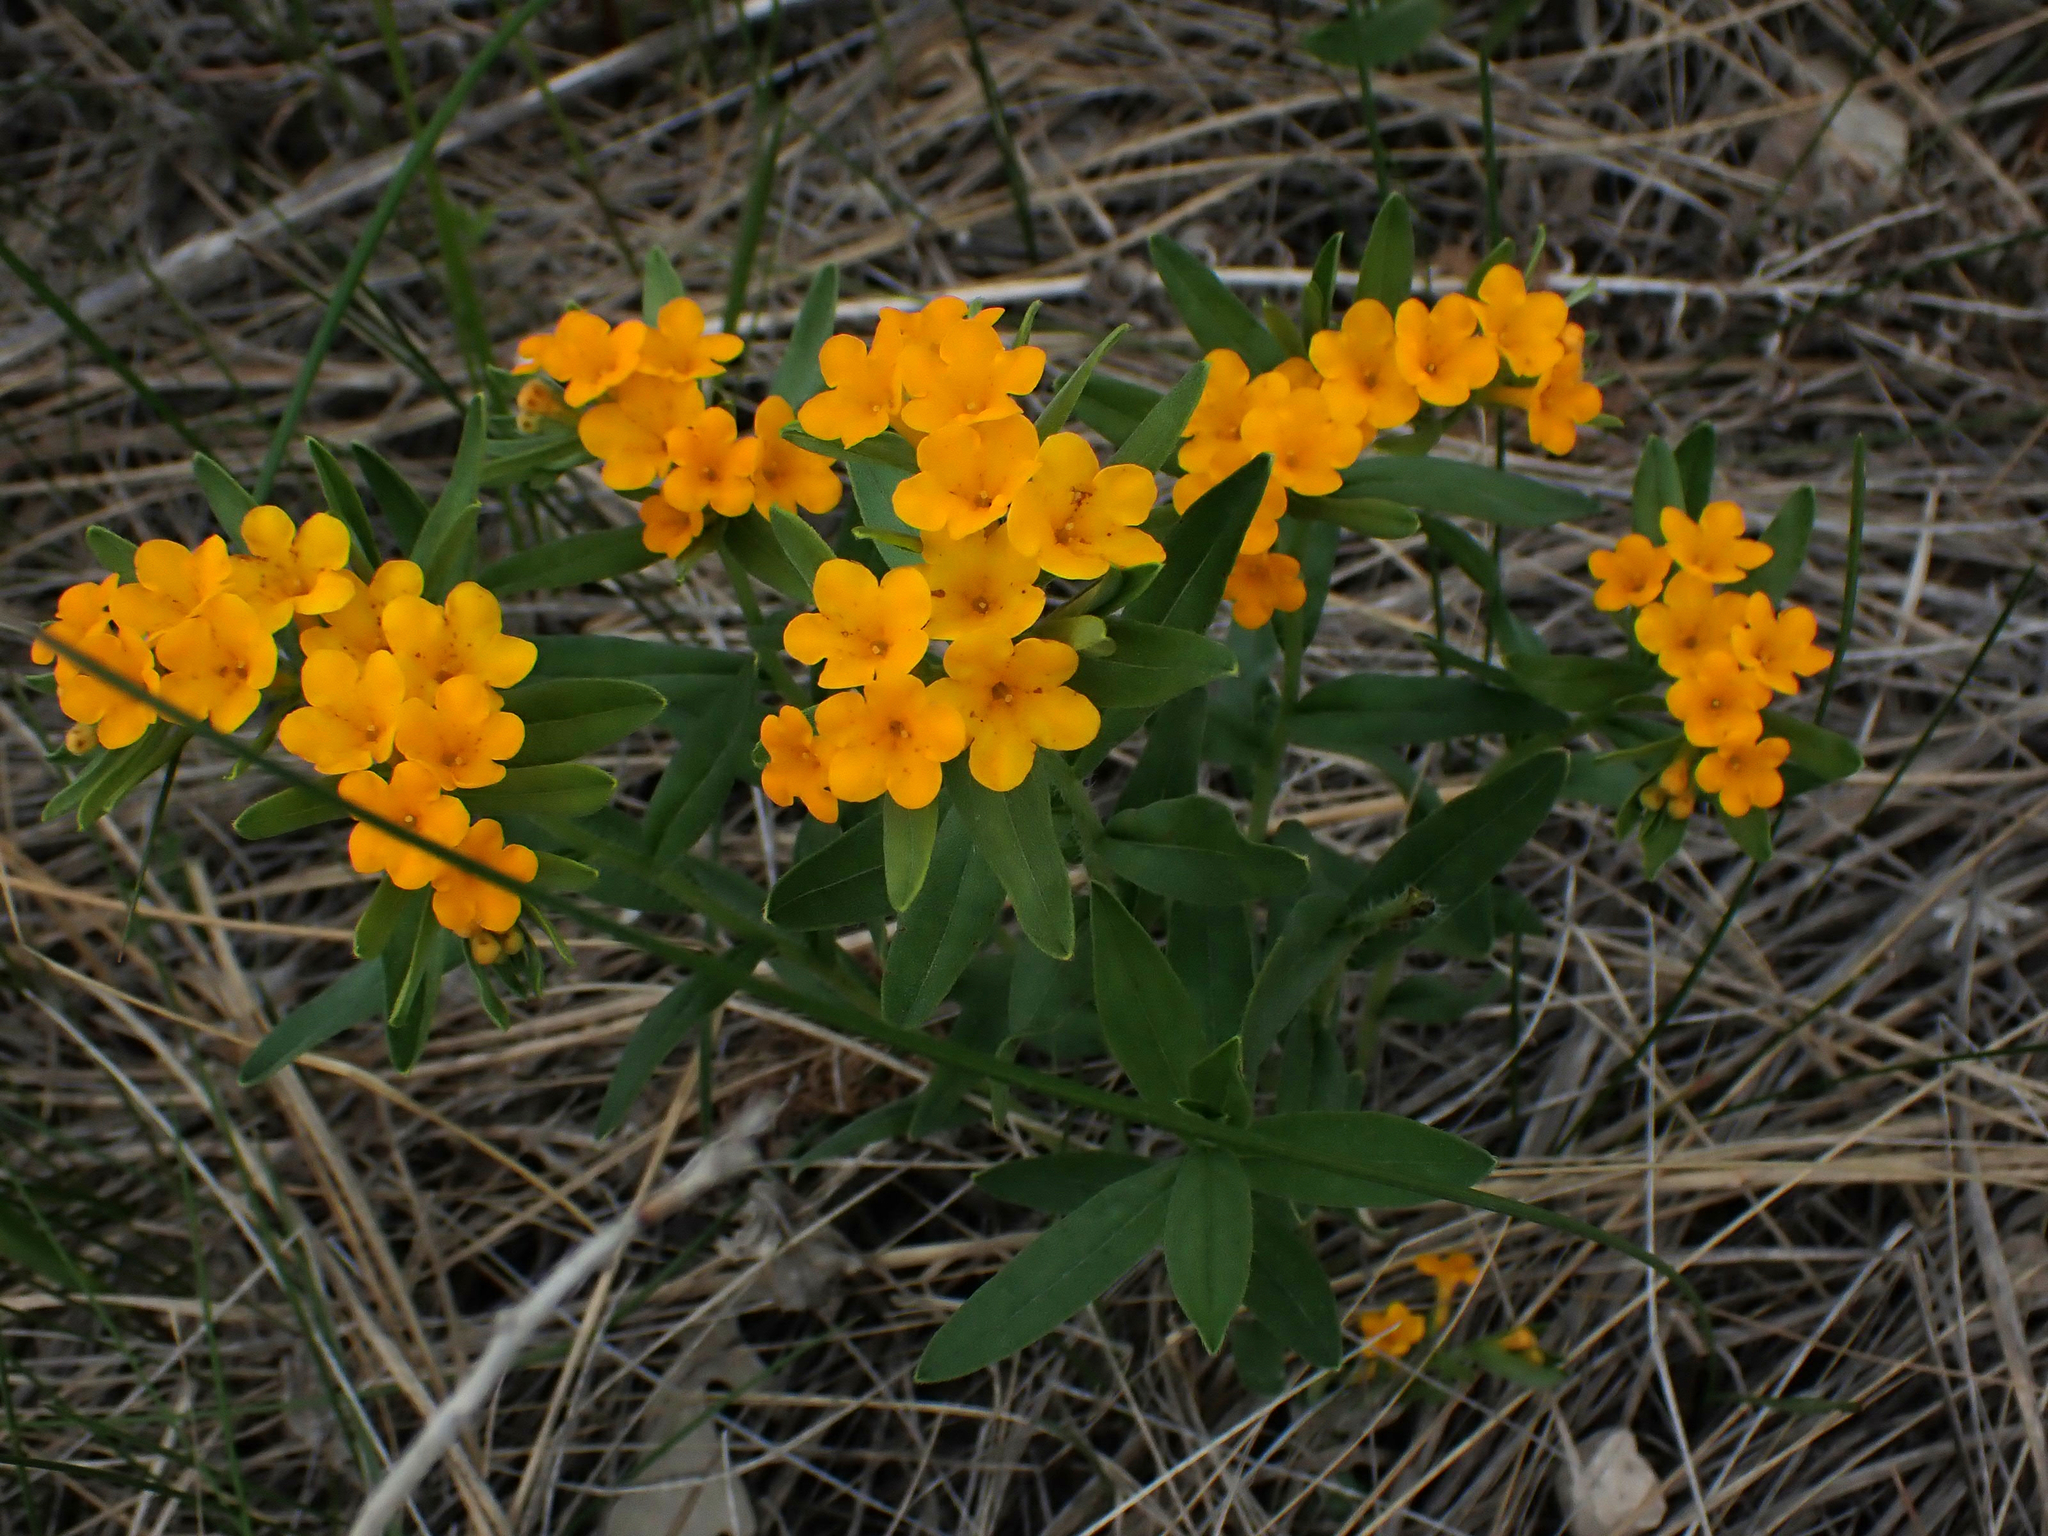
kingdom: Plantae
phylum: Tracheophyta
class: Magnoliopsida
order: Boraginales
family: Boraginaceae
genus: Lithospermum
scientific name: Lithospermum canescens
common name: Hoary puccoon
